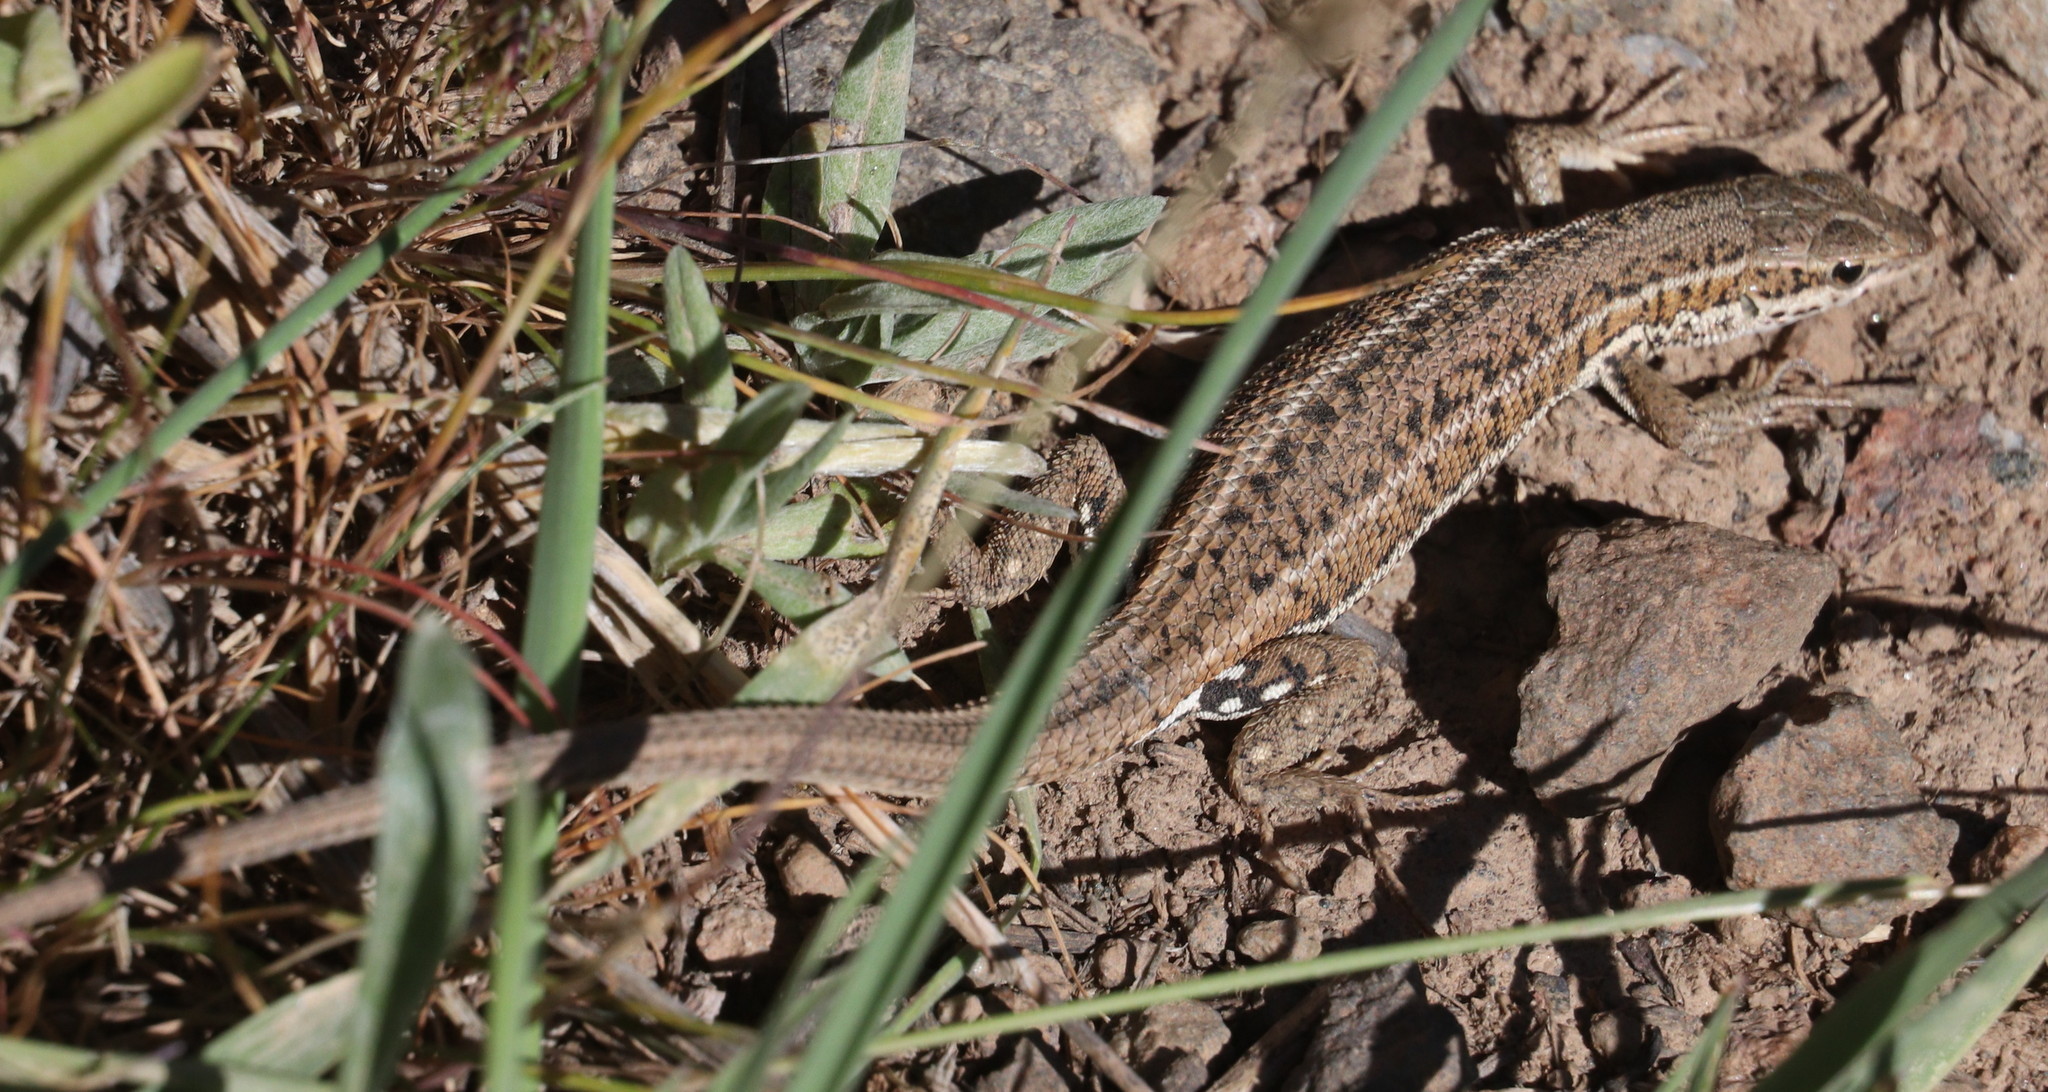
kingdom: Animalia
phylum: Chordata
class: Squamata
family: Lacertidae
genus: Ophisops
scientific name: Ophisops elegans
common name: Snake-eyed lizard
